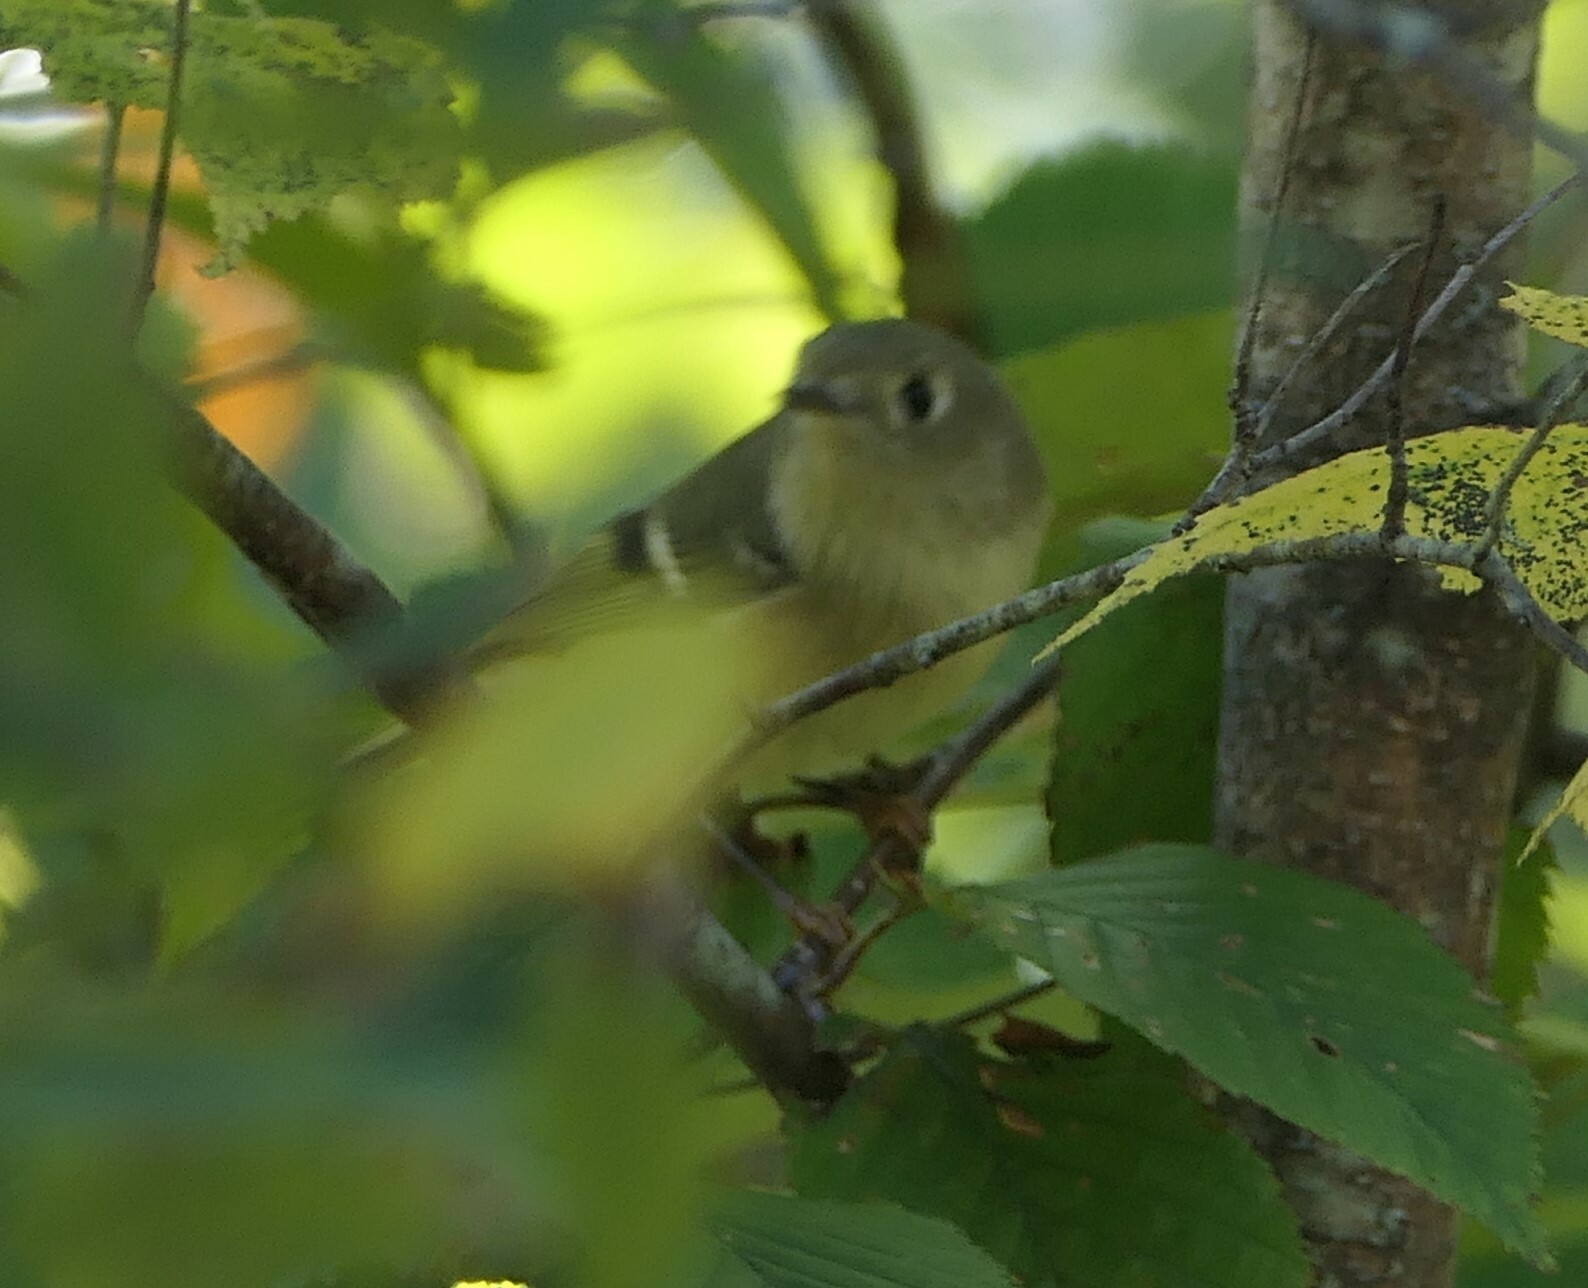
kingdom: Animalia
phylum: Chordata
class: Aves
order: Passeriformes
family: Regulidae
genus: Regulus
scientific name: Regulus calendula
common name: Ruby-crowned kinglet
